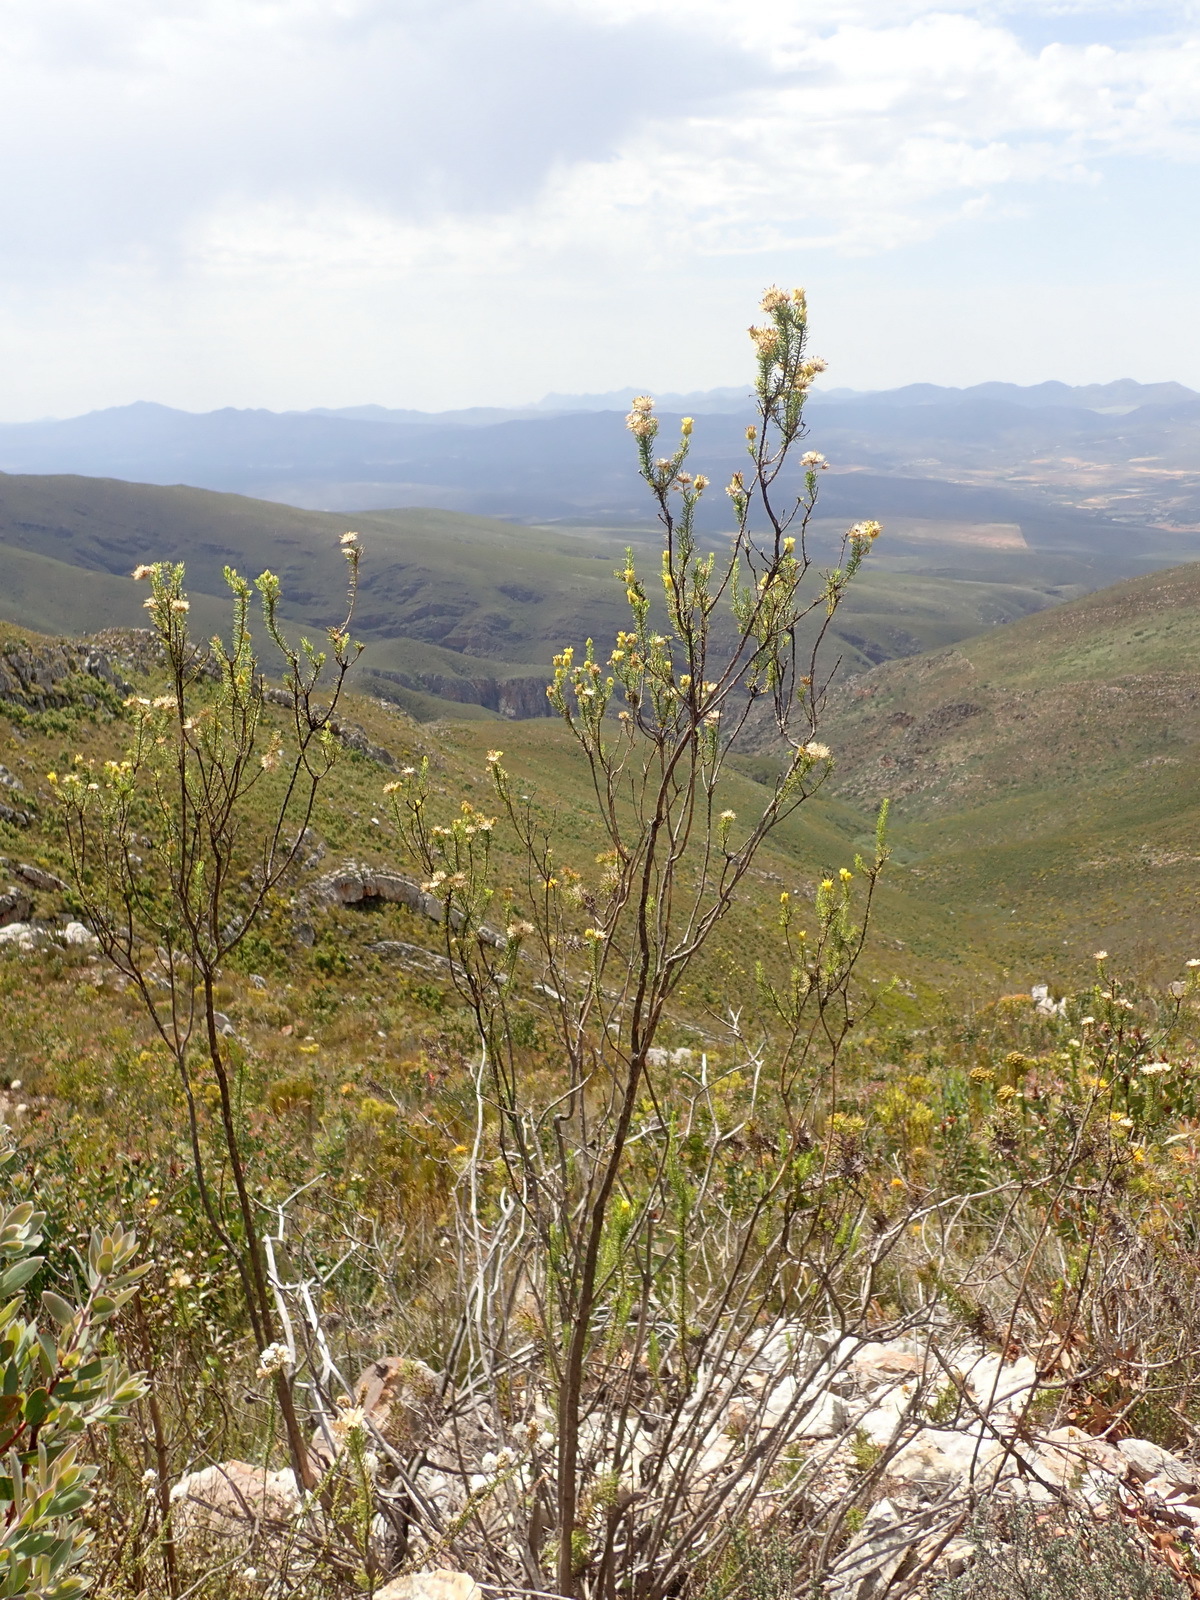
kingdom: Plantae
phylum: Tracheophyta
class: Magnoliopsida
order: Asterales
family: Asteraceae
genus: Pteronia
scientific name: Pteronia camphorata
